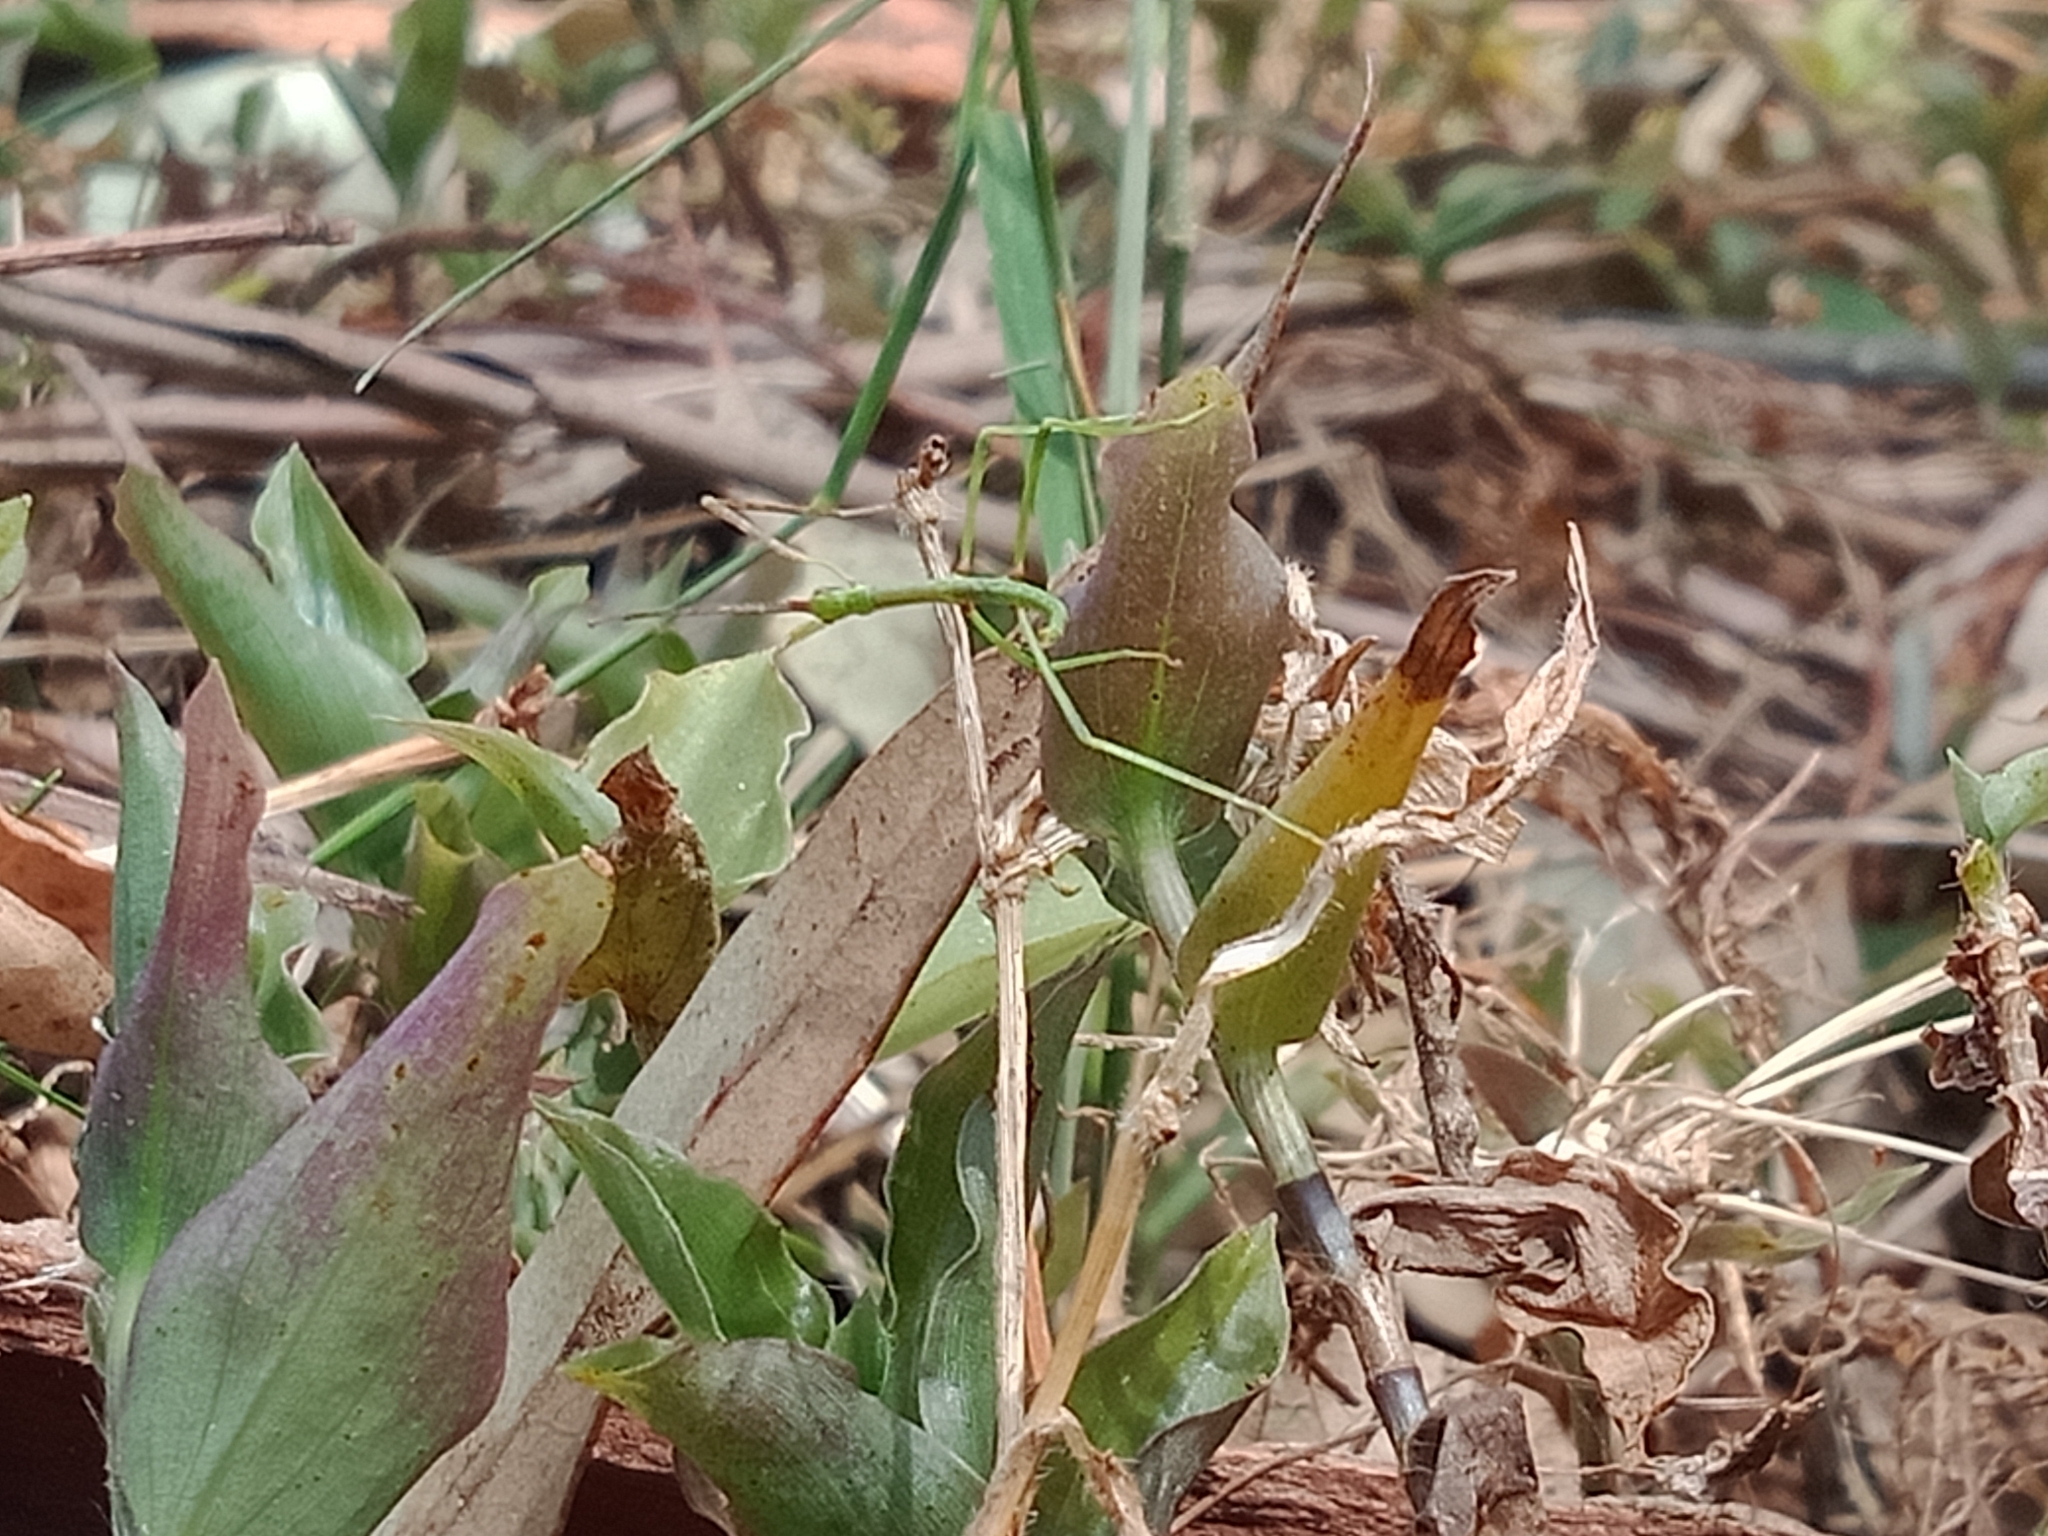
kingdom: Animalia
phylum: Arthropoda
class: Insecta
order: Phasmida
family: Phasmatidae
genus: Ctenomorpha
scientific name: Ctenomorpha marginipennis
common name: Margined-winged stick-insect
